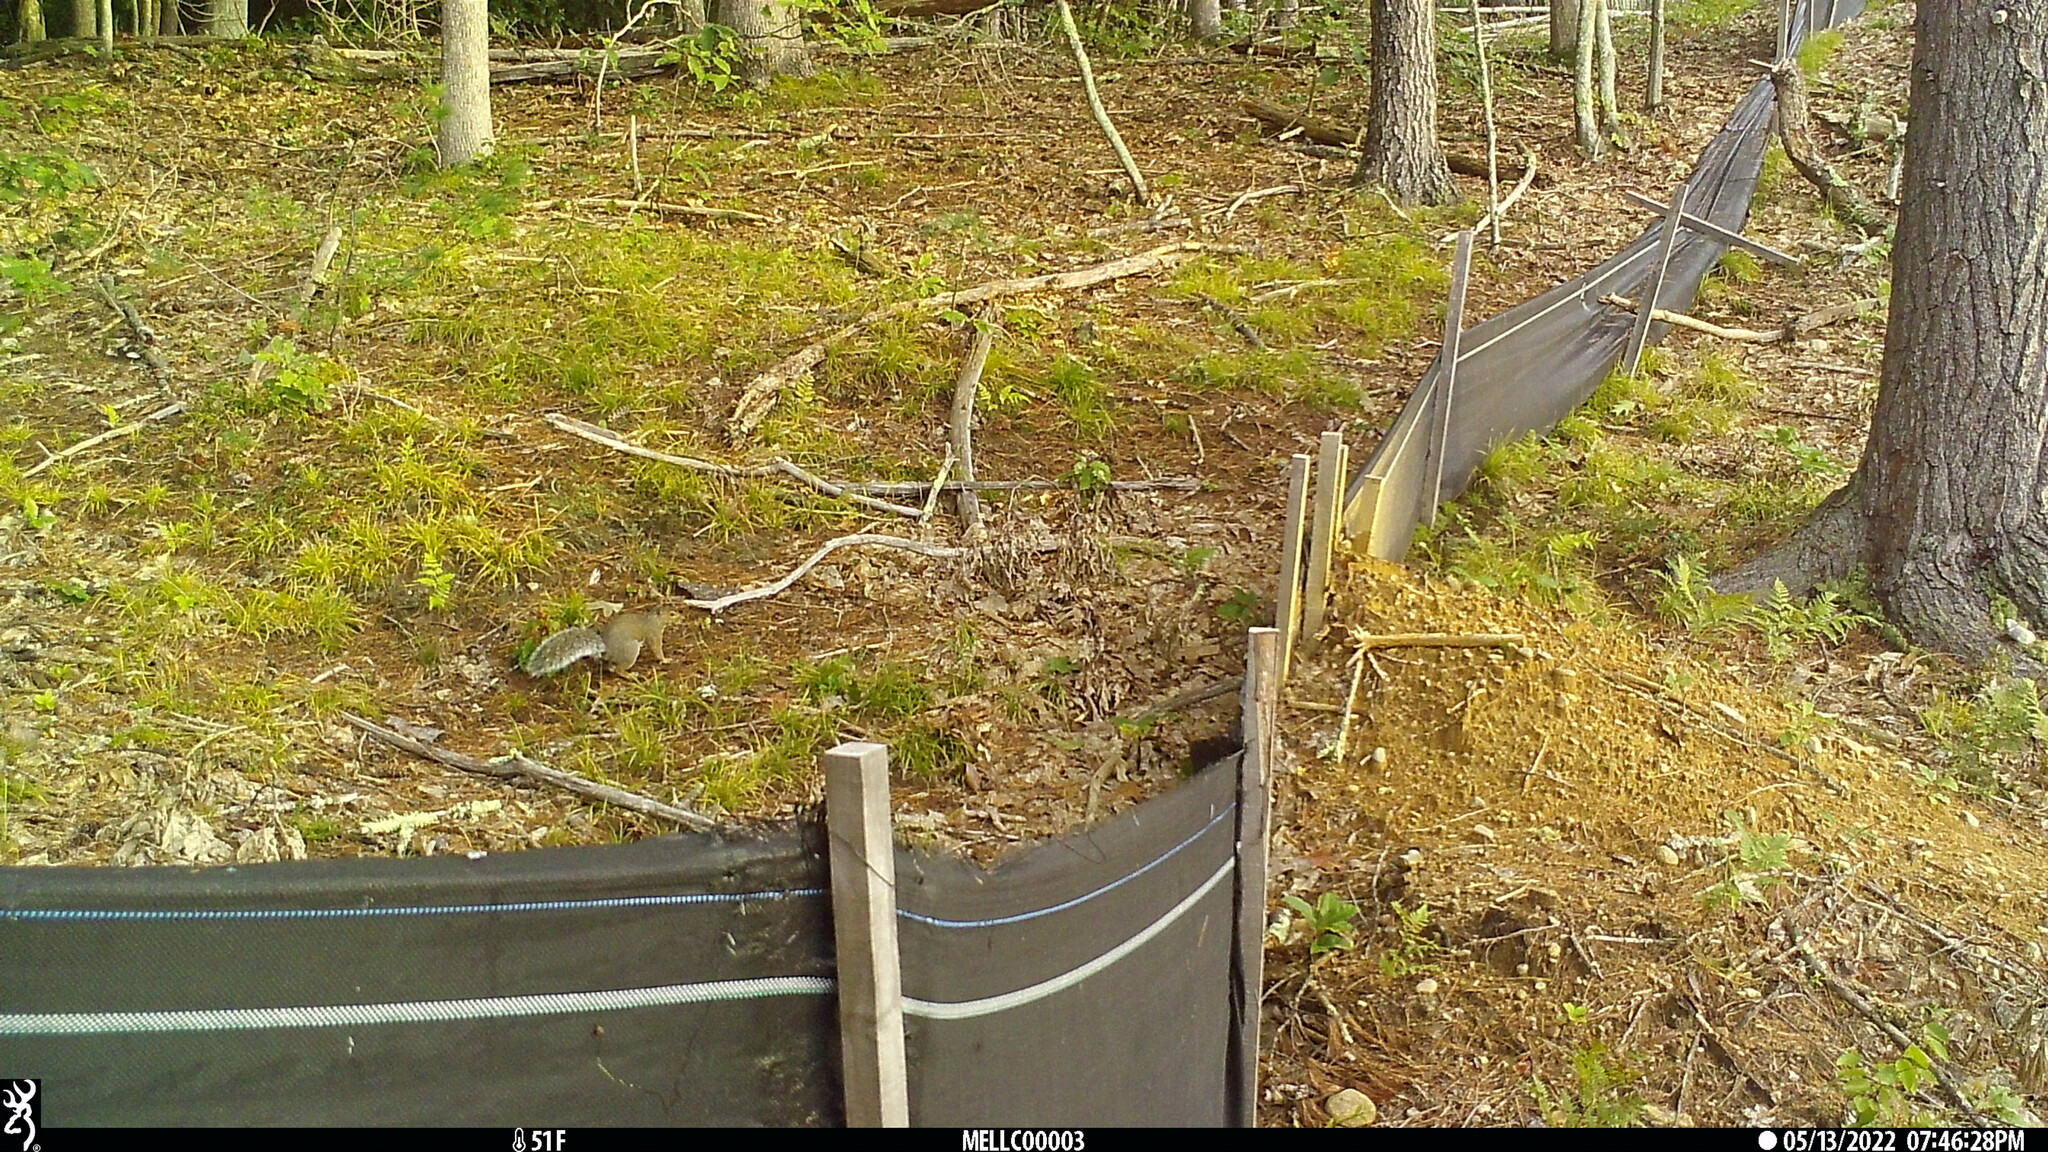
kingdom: Animalia
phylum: Chordata
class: Mammalia
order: Rodentia
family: Sciuridae
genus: Sciurus
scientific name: Sciurus carolinensis
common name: Eastern gray squirrel
